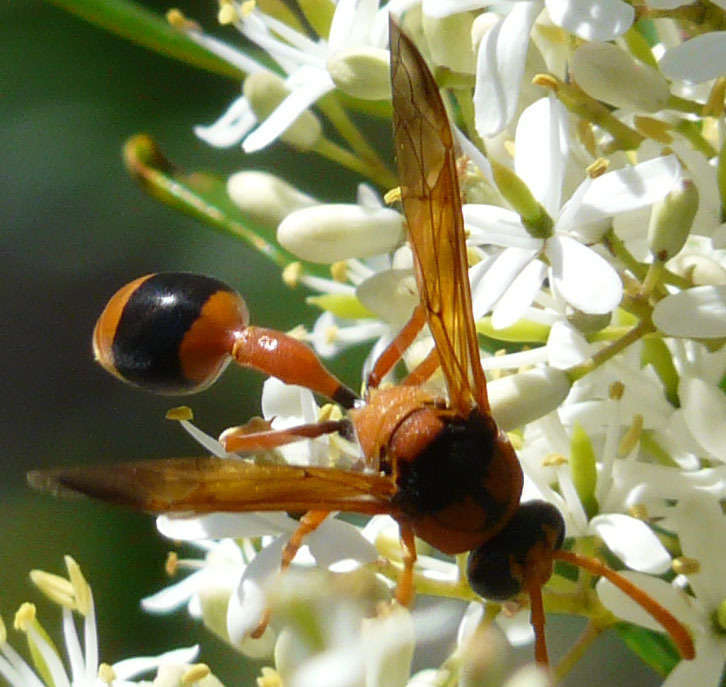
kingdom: Animalia
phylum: Arthropoda
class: Insecta
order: Hymenoptera
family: Eumenidae
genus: Delta
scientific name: Delta bicinctum
